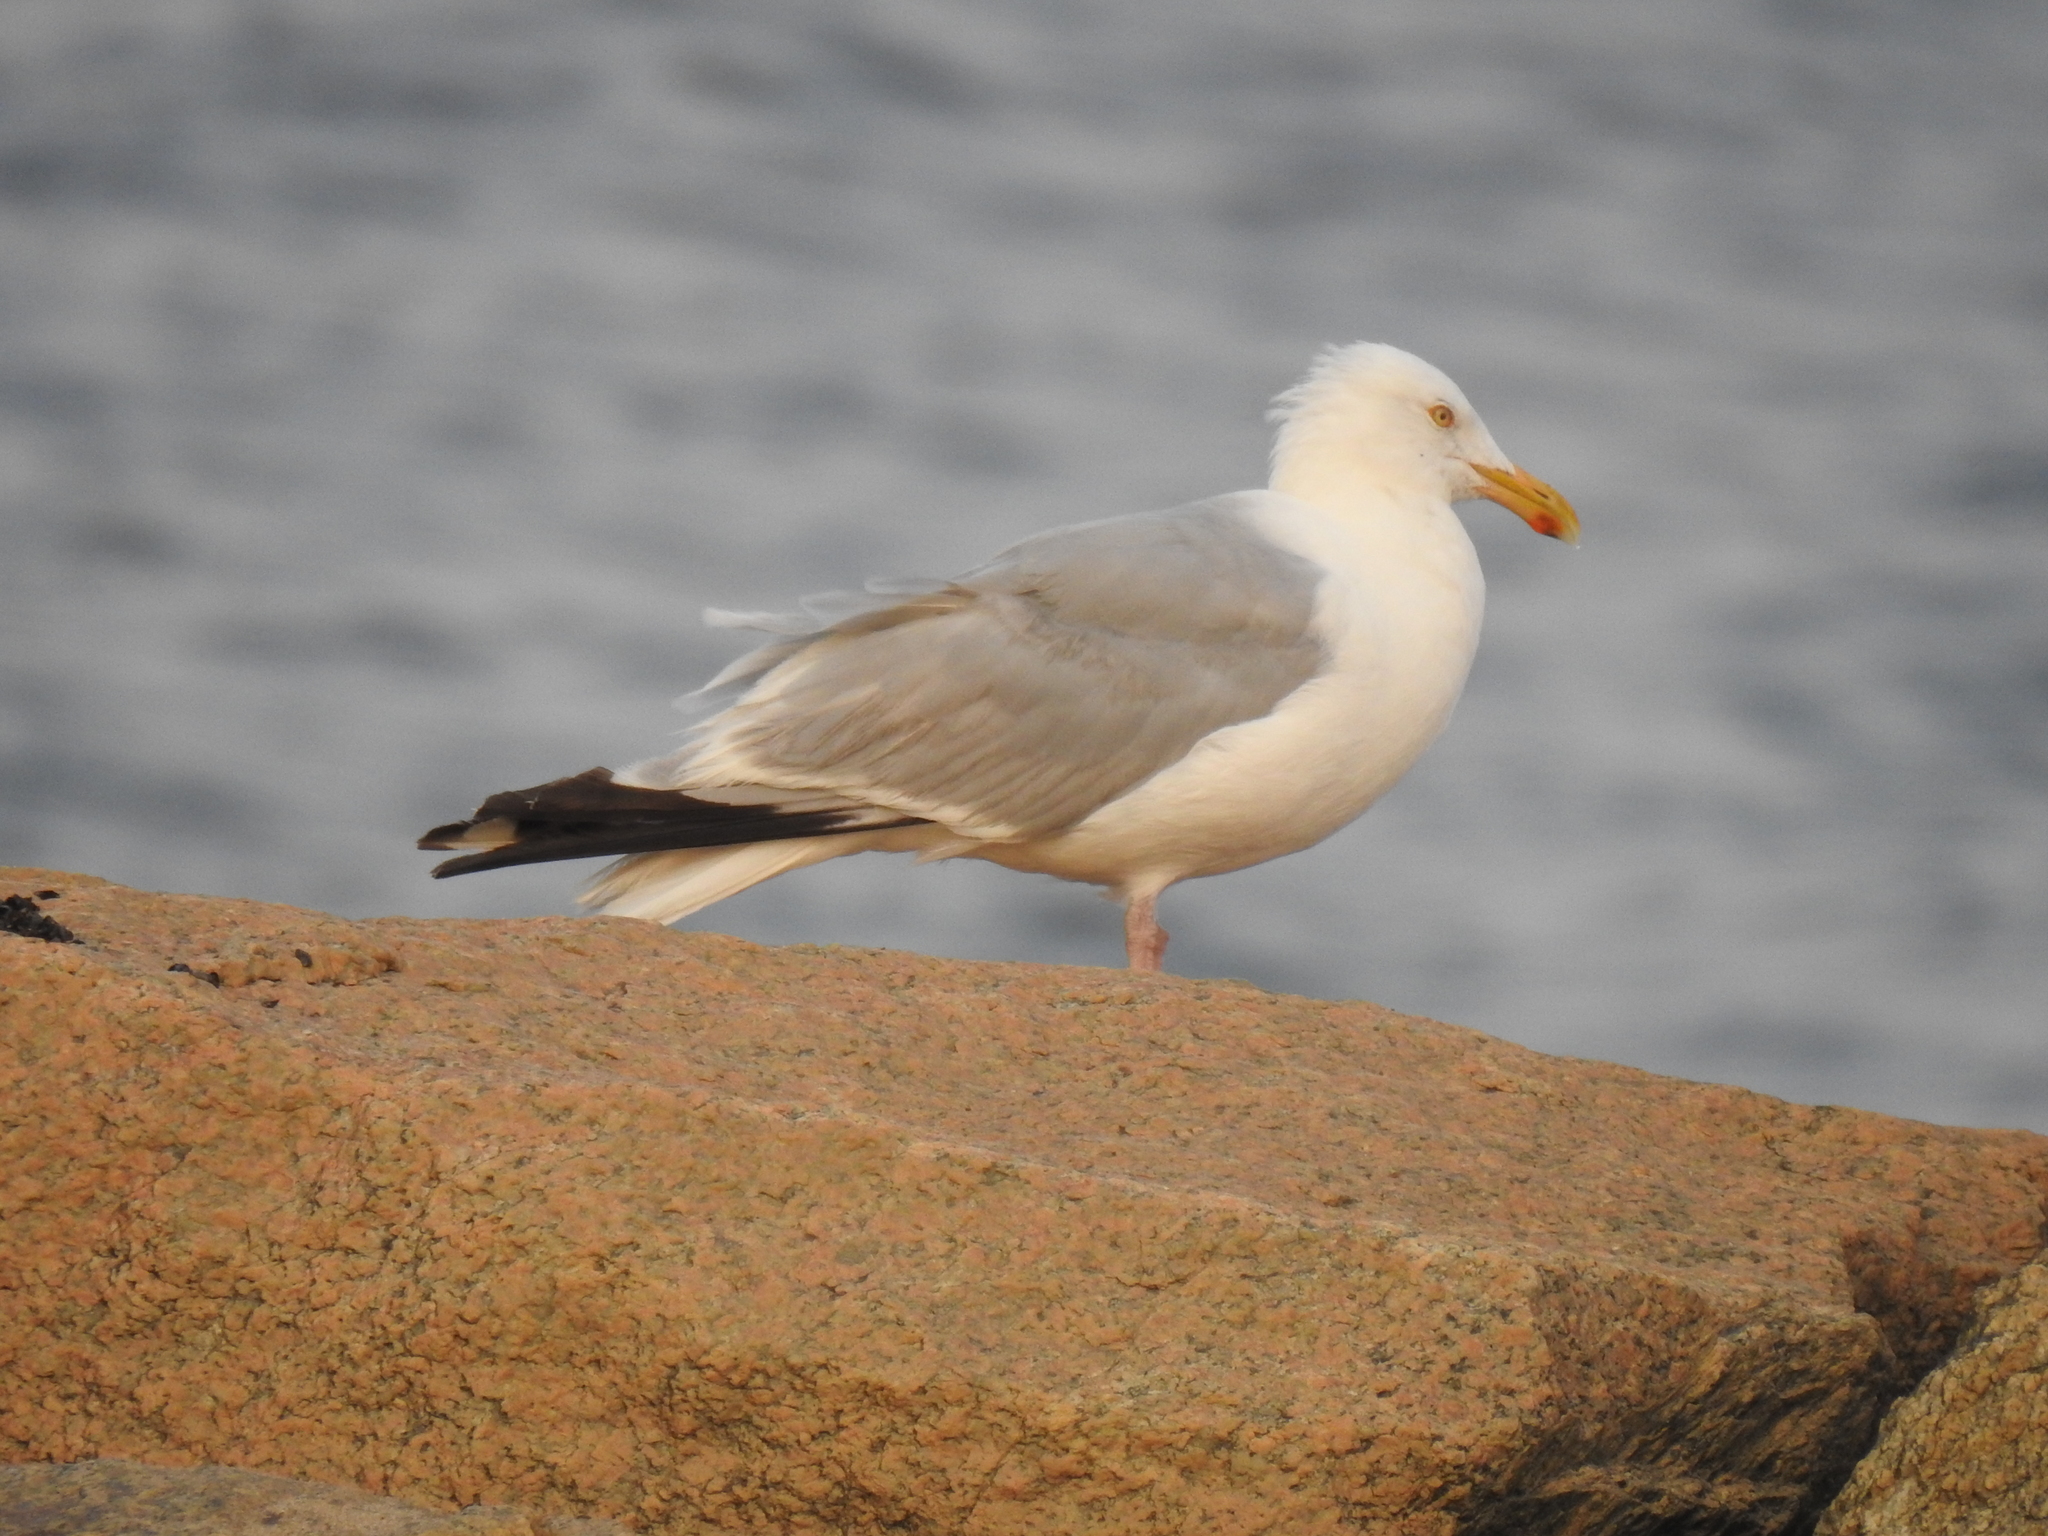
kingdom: Animalia
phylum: Chordata
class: Aves
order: Charadriiformes
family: Laridae
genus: Larus
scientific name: Larus argentatus
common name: Herring gull
